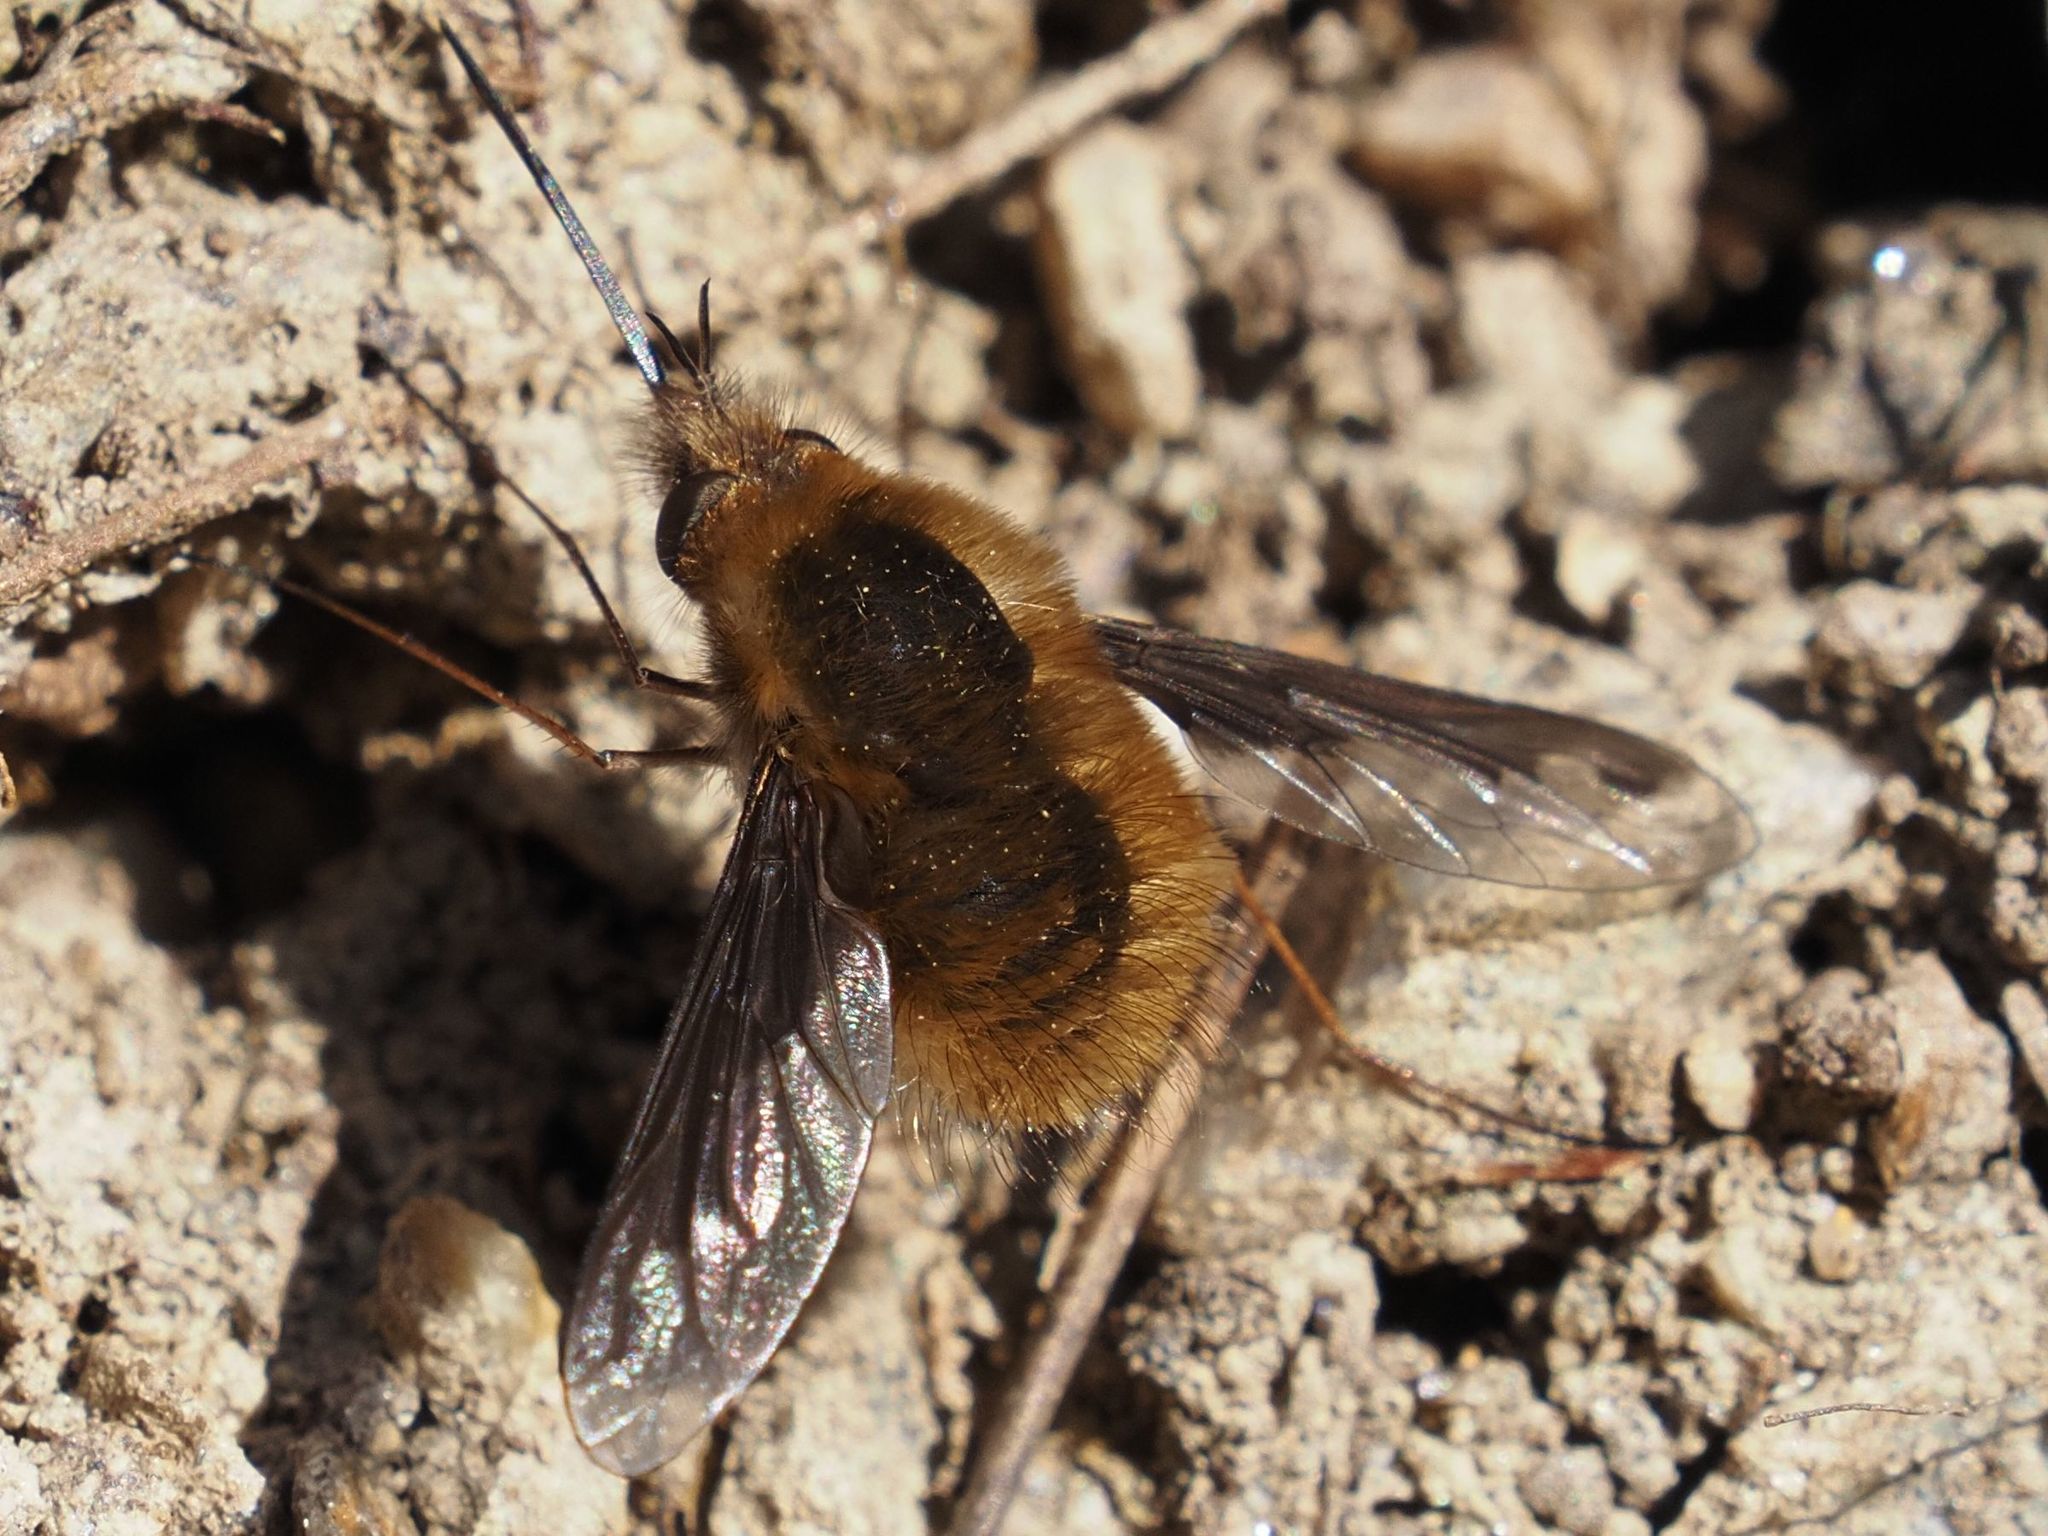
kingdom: Animalia
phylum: Arthropoda
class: Insecta
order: Diptera
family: Bombyliidae
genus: Bombylius
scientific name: Bombylius major
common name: Bee fly
